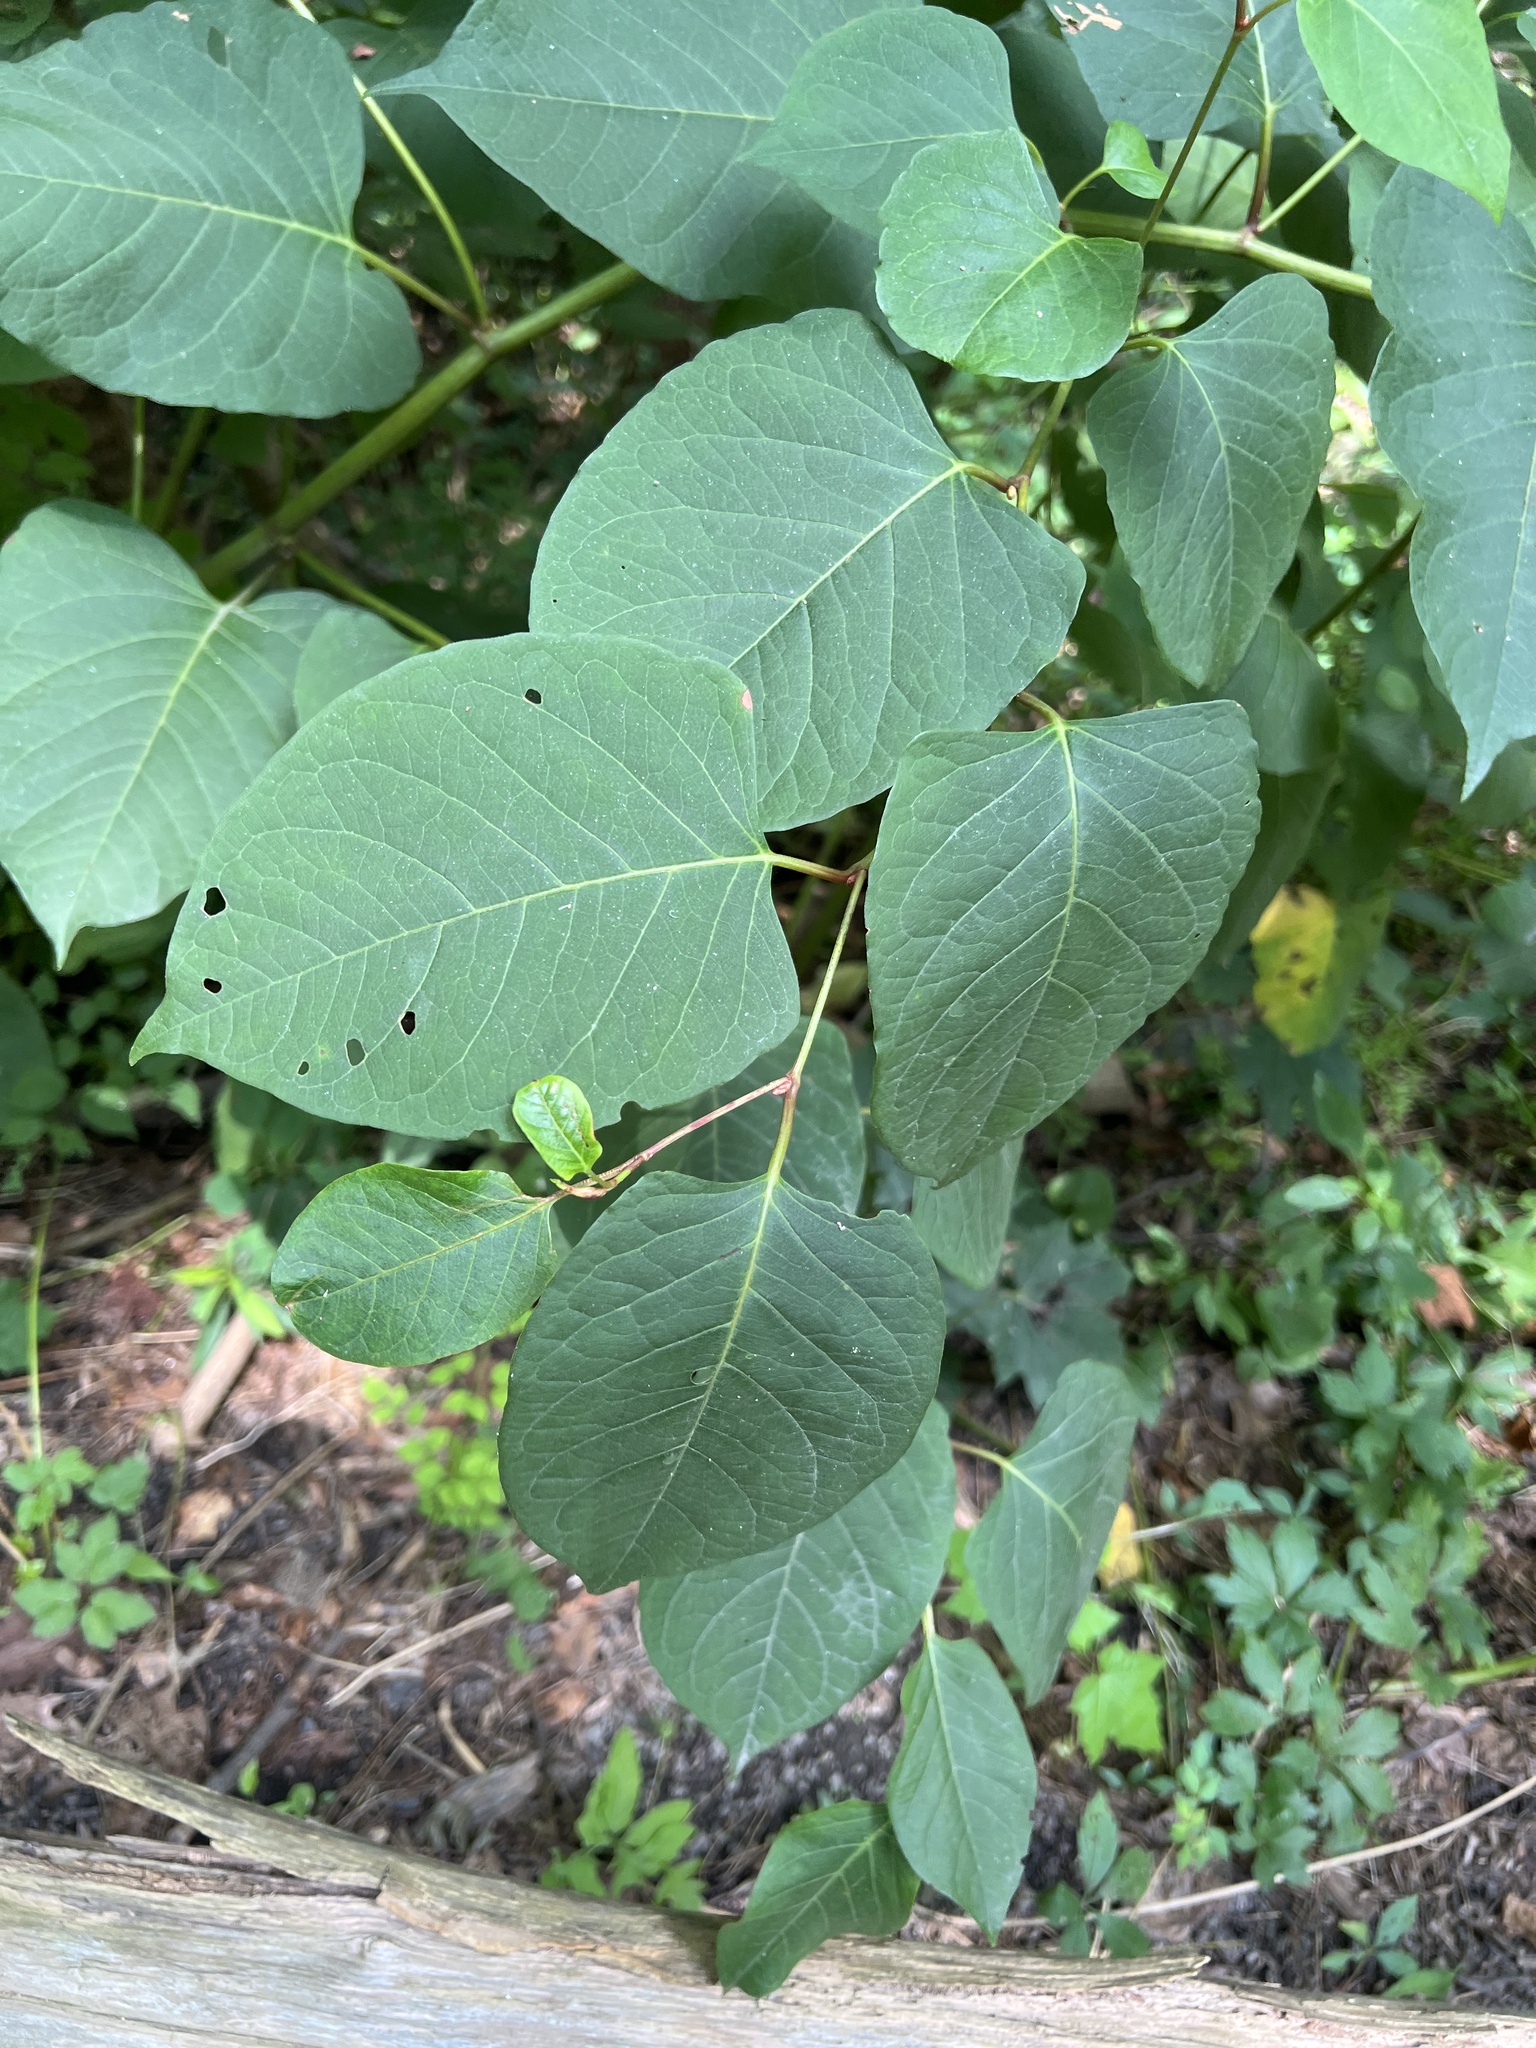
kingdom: Plantae
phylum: Tracheophyta
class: Magnoliopsida
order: Caryophyllales
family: Polygonaceae
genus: Reynoutria
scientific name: Reynoutria japonica
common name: Japanese knotweed
